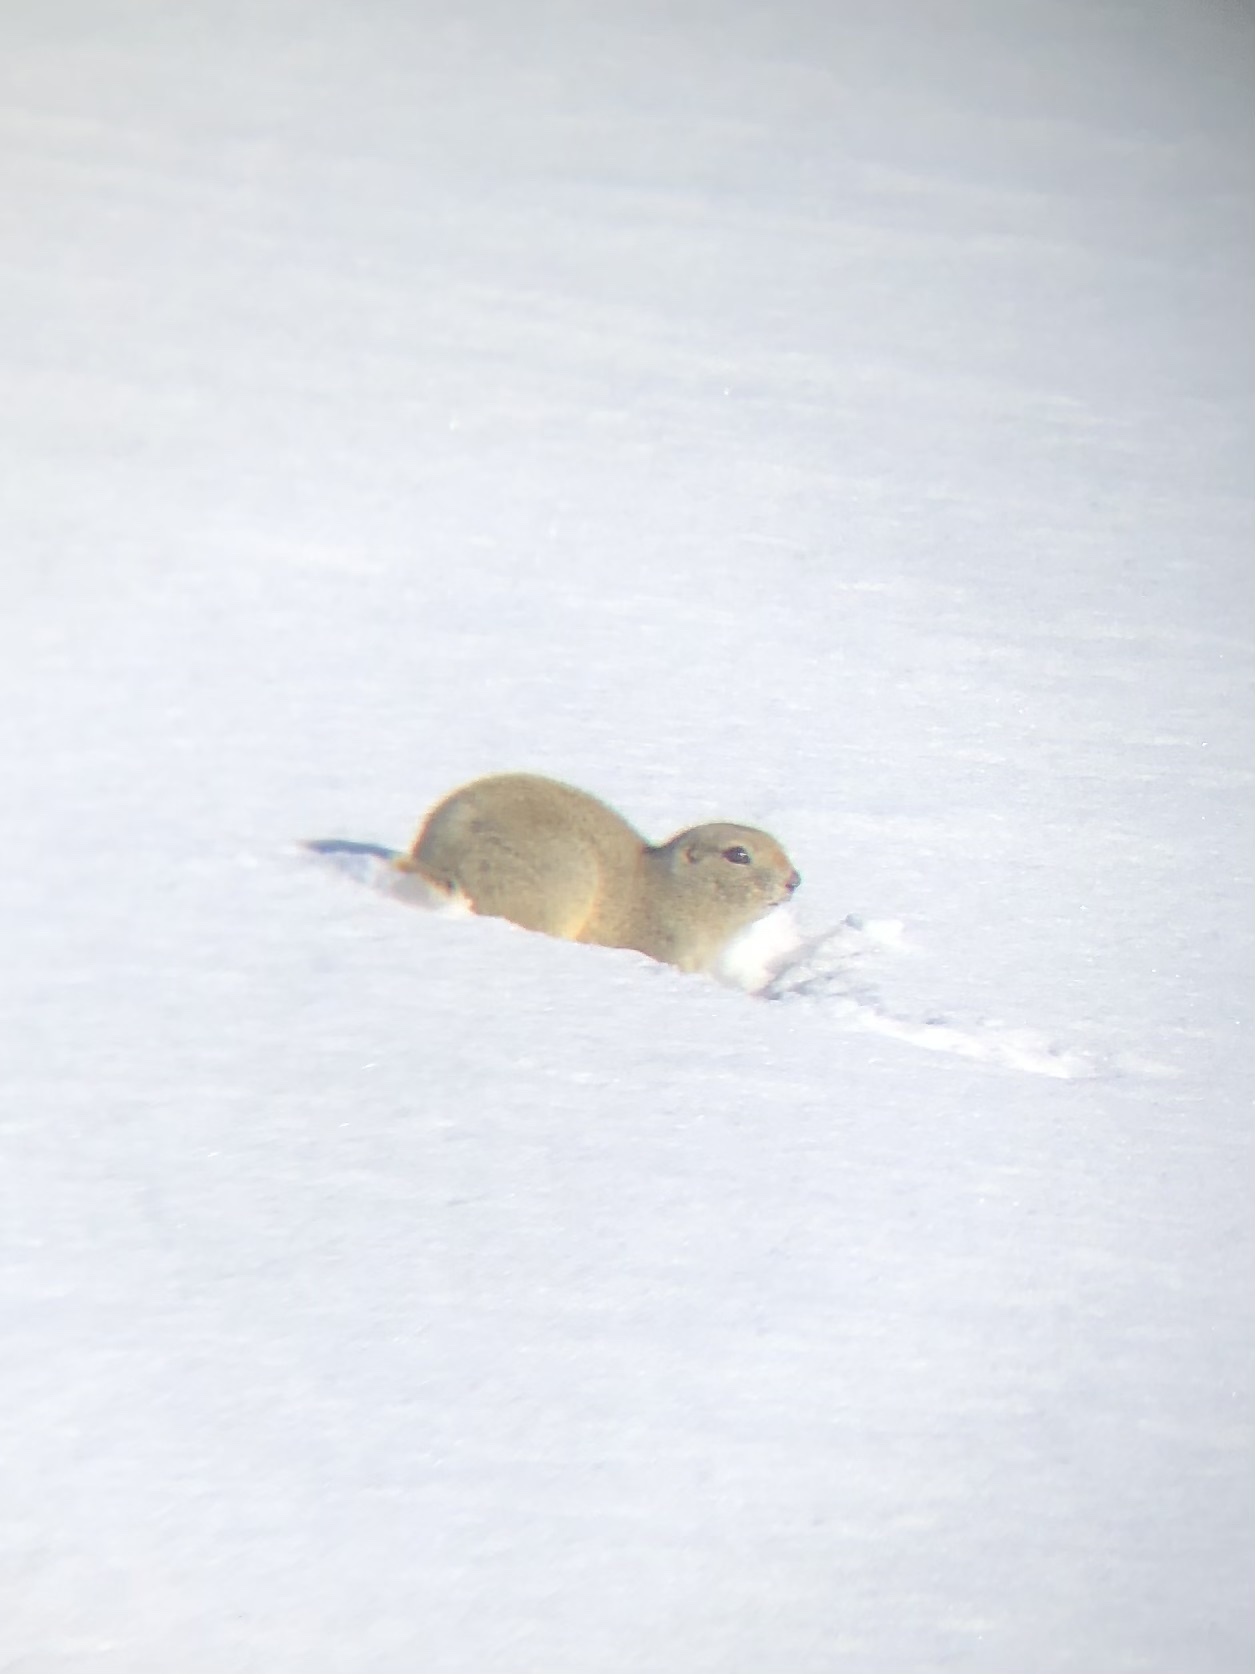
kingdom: Animalia
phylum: Chordata
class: Mammalia
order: Rodentia
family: Sciuridae
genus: Urocitellus
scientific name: Urocitellus richardsonii
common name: Richardson's ground squirrel
